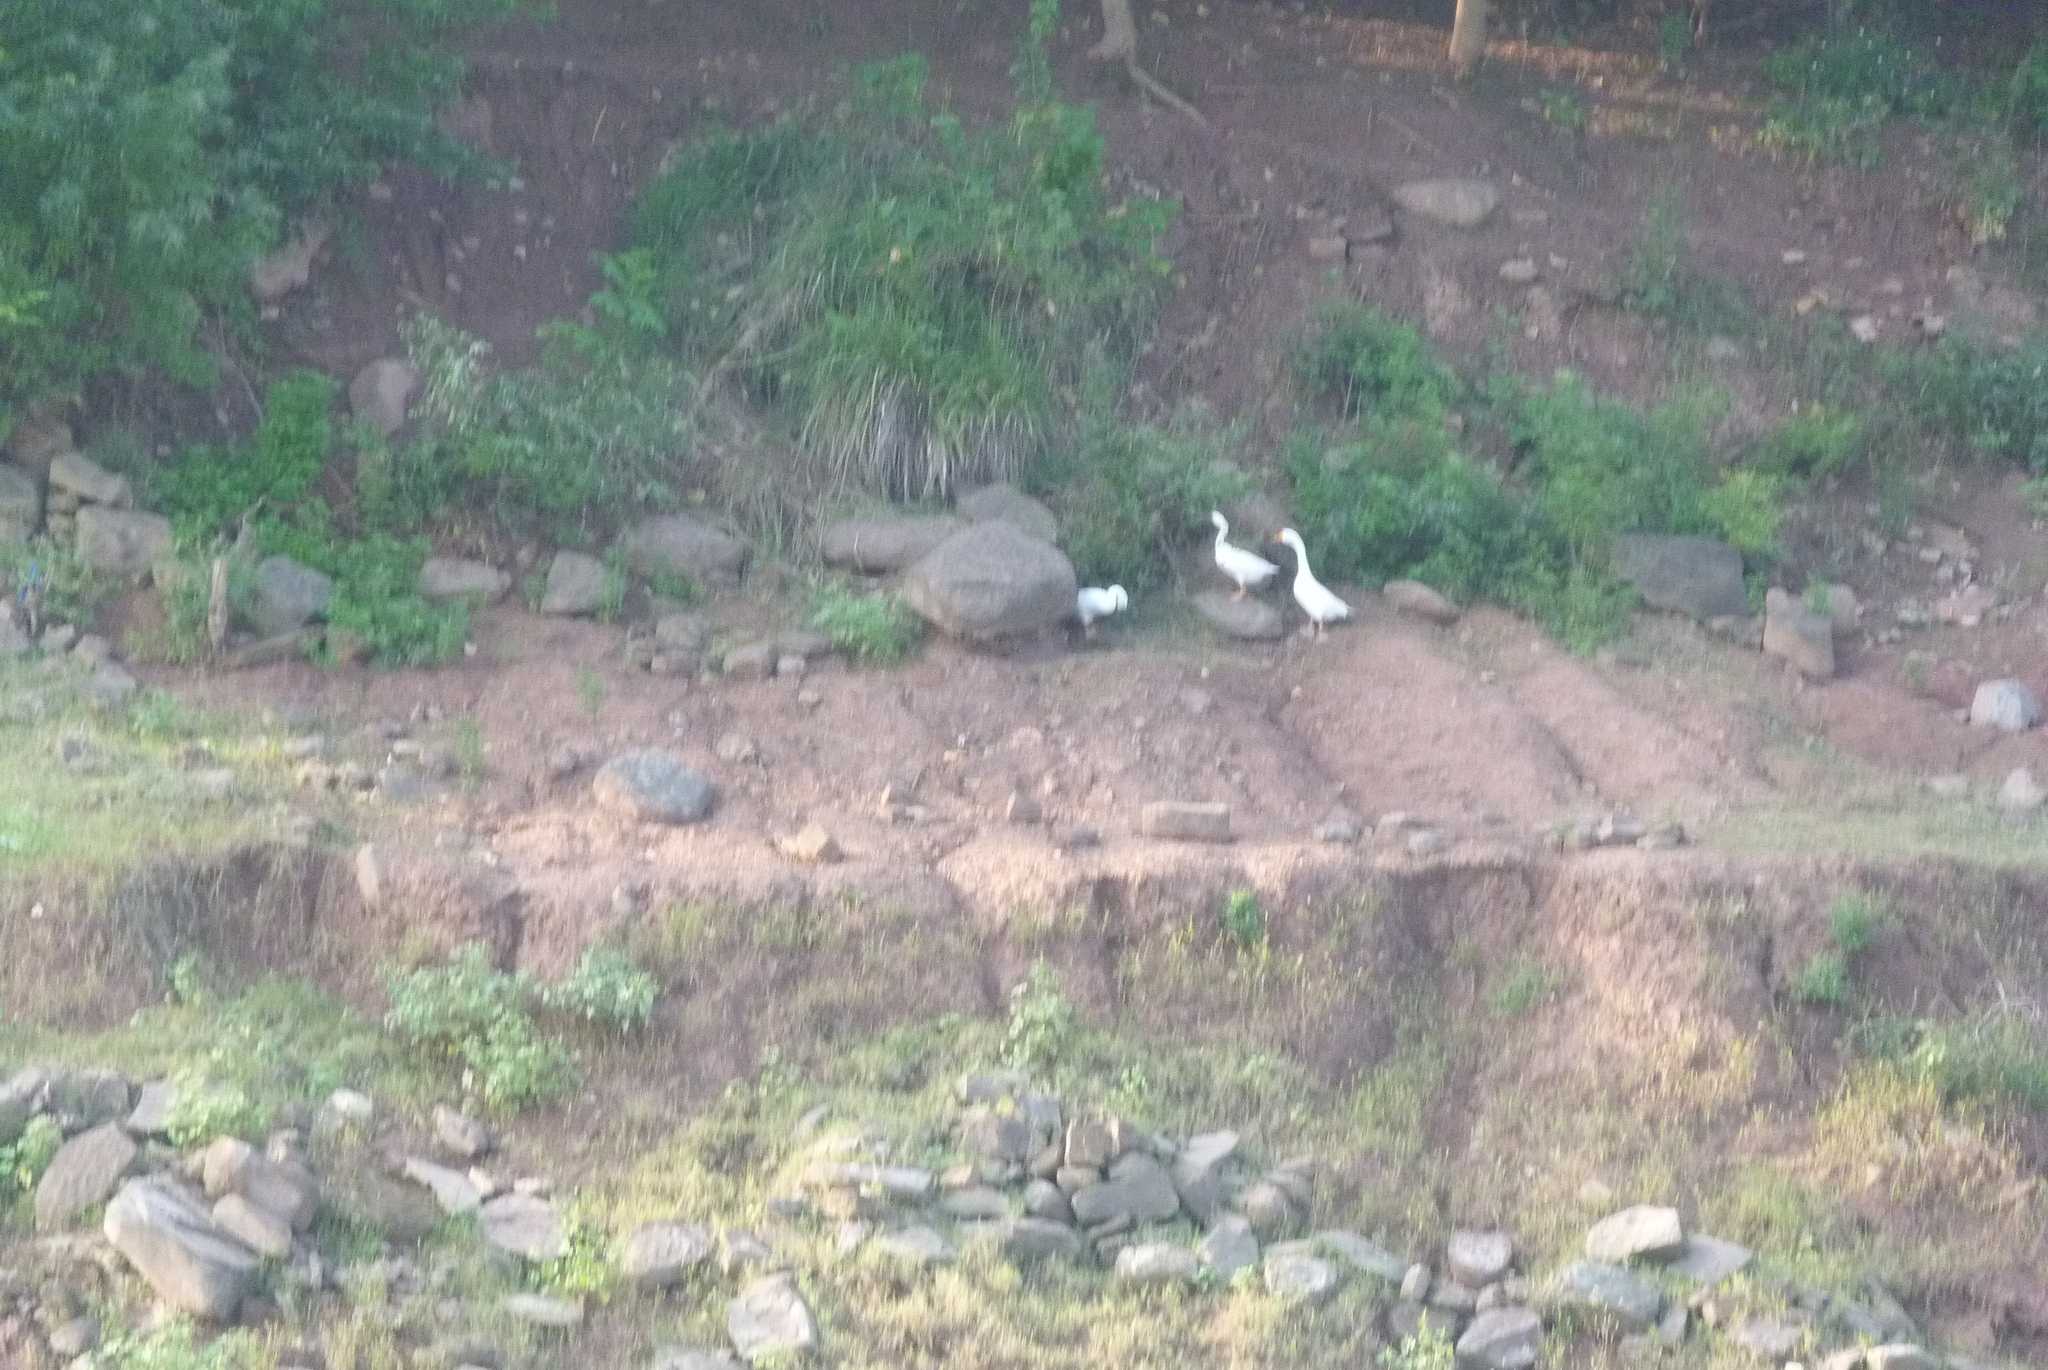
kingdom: Animalia
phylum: Chordata
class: Aves
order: Anseriformes
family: Anatidae
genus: Anser
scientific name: Anser cygnoides
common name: Swan goose
